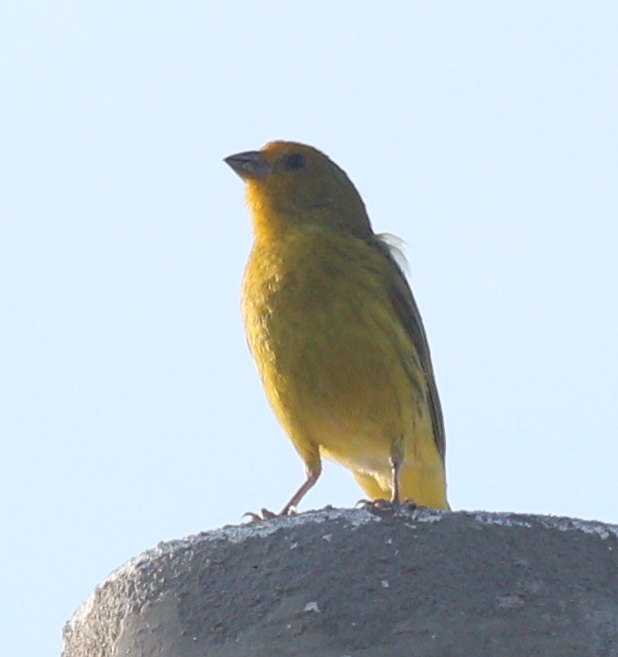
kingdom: Animalia
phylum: Chordata
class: Aves
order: Passeriformes
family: Thraupidae
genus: Sicalis
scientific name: Sicalis flaveola
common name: Saffron finch
